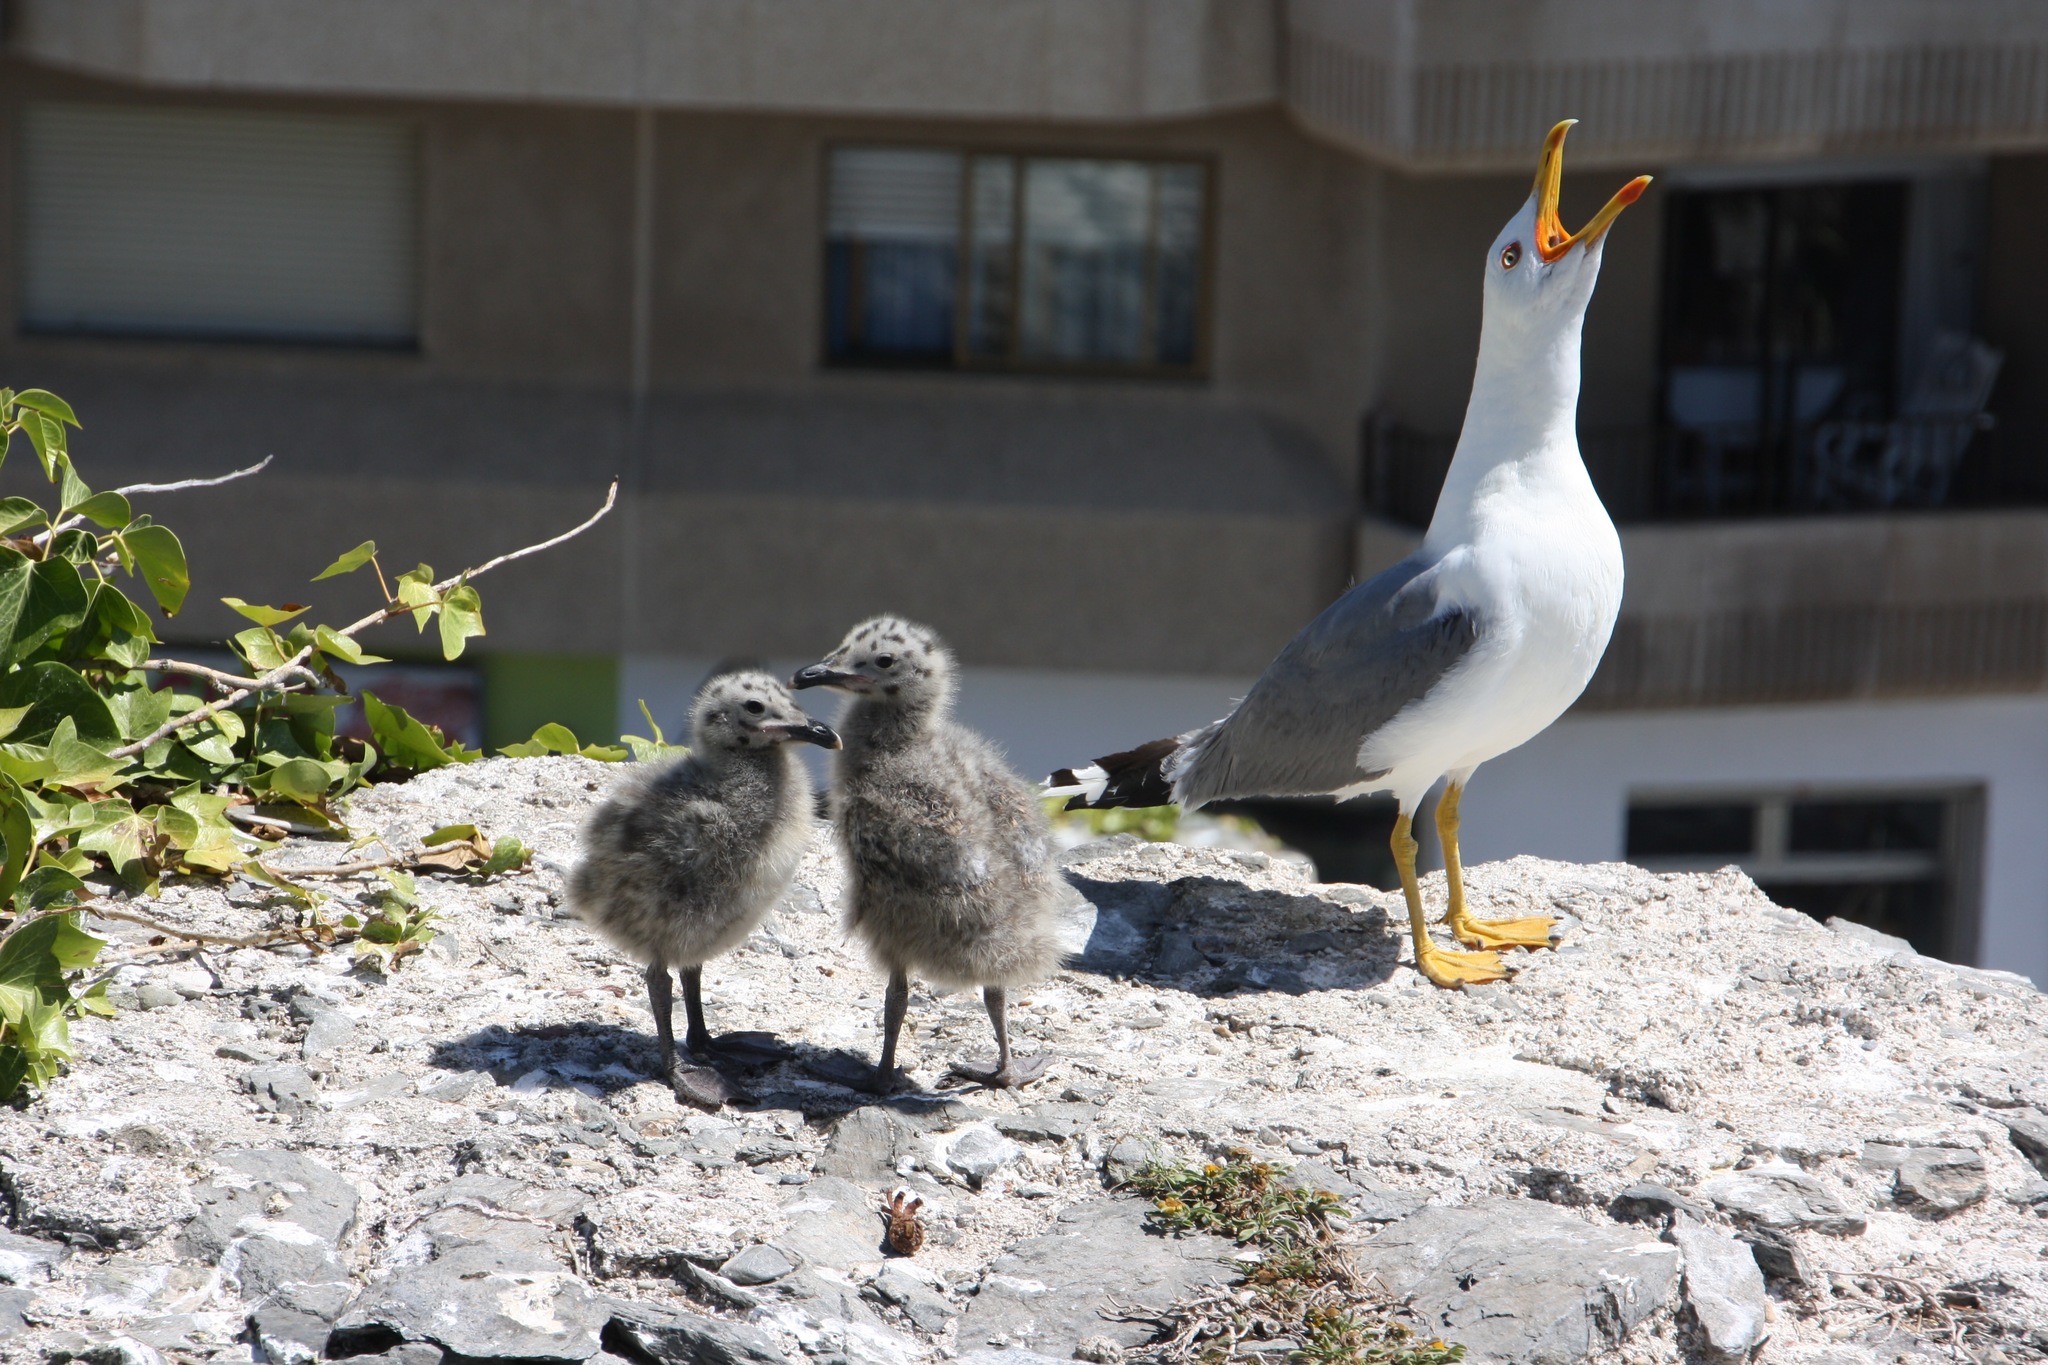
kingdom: Animalia
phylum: Chordata
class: Aves
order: Charadriiformes
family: Laridae
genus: Larus
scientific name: Larus michahellis
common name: Yellow-legged gull
